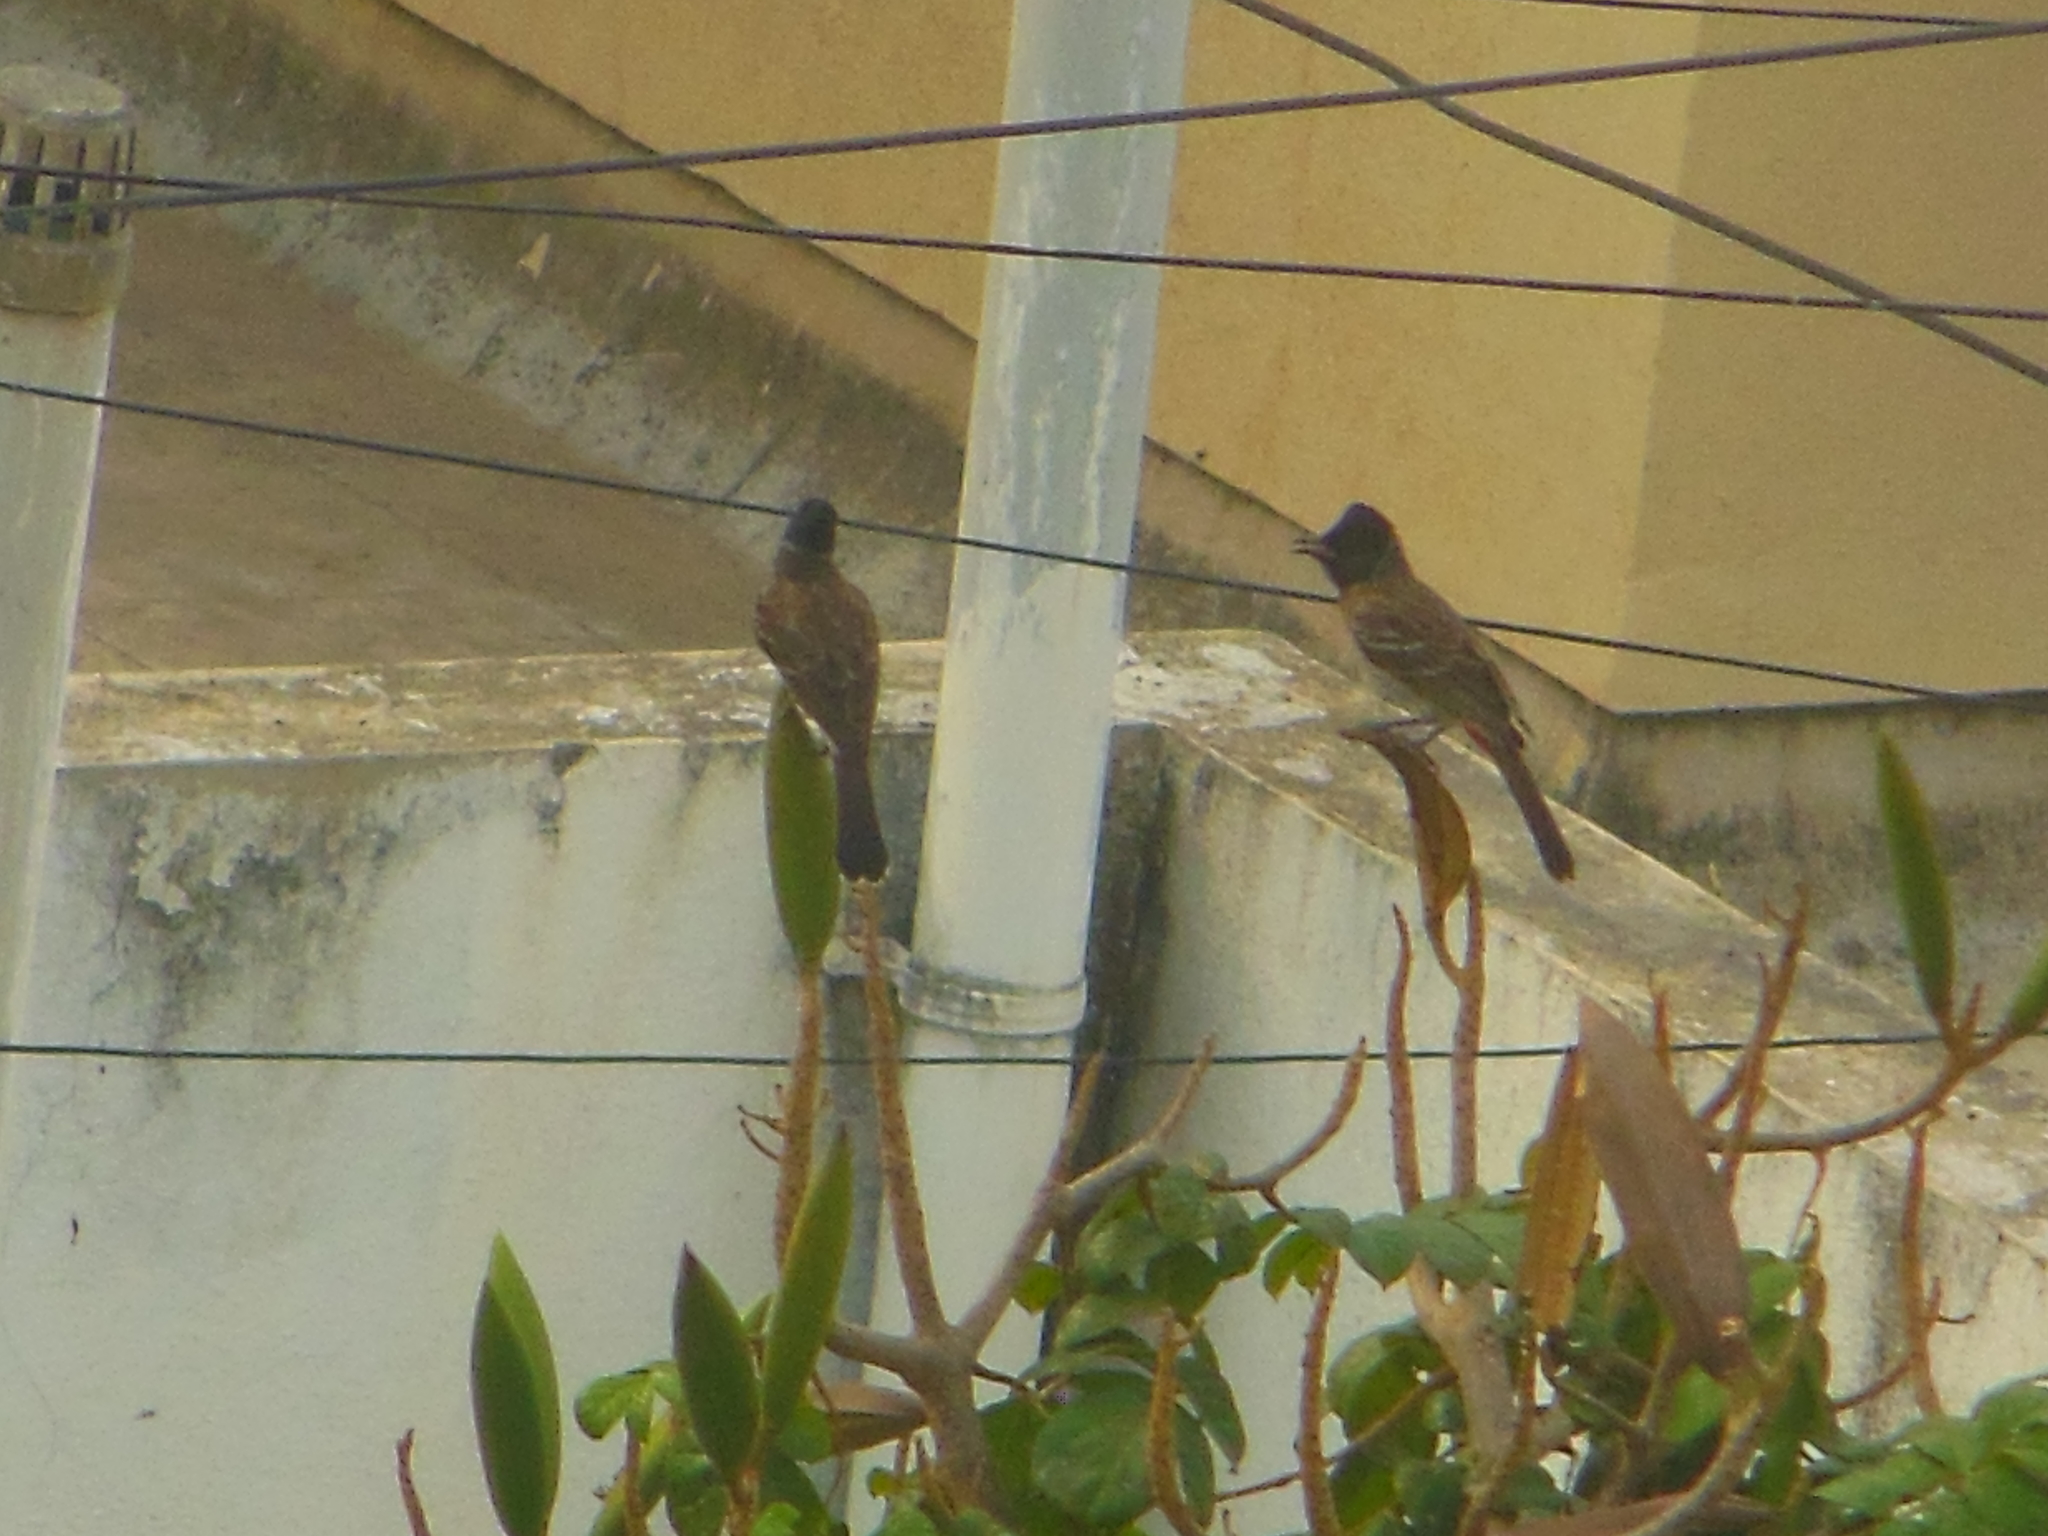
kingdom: Animalia
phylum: Chordata
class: Aves
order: Passeriformes
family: Pycnonotidae
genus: Pycnonotus
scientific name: Pycnonotus cafer
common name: Red-vented bulbul
